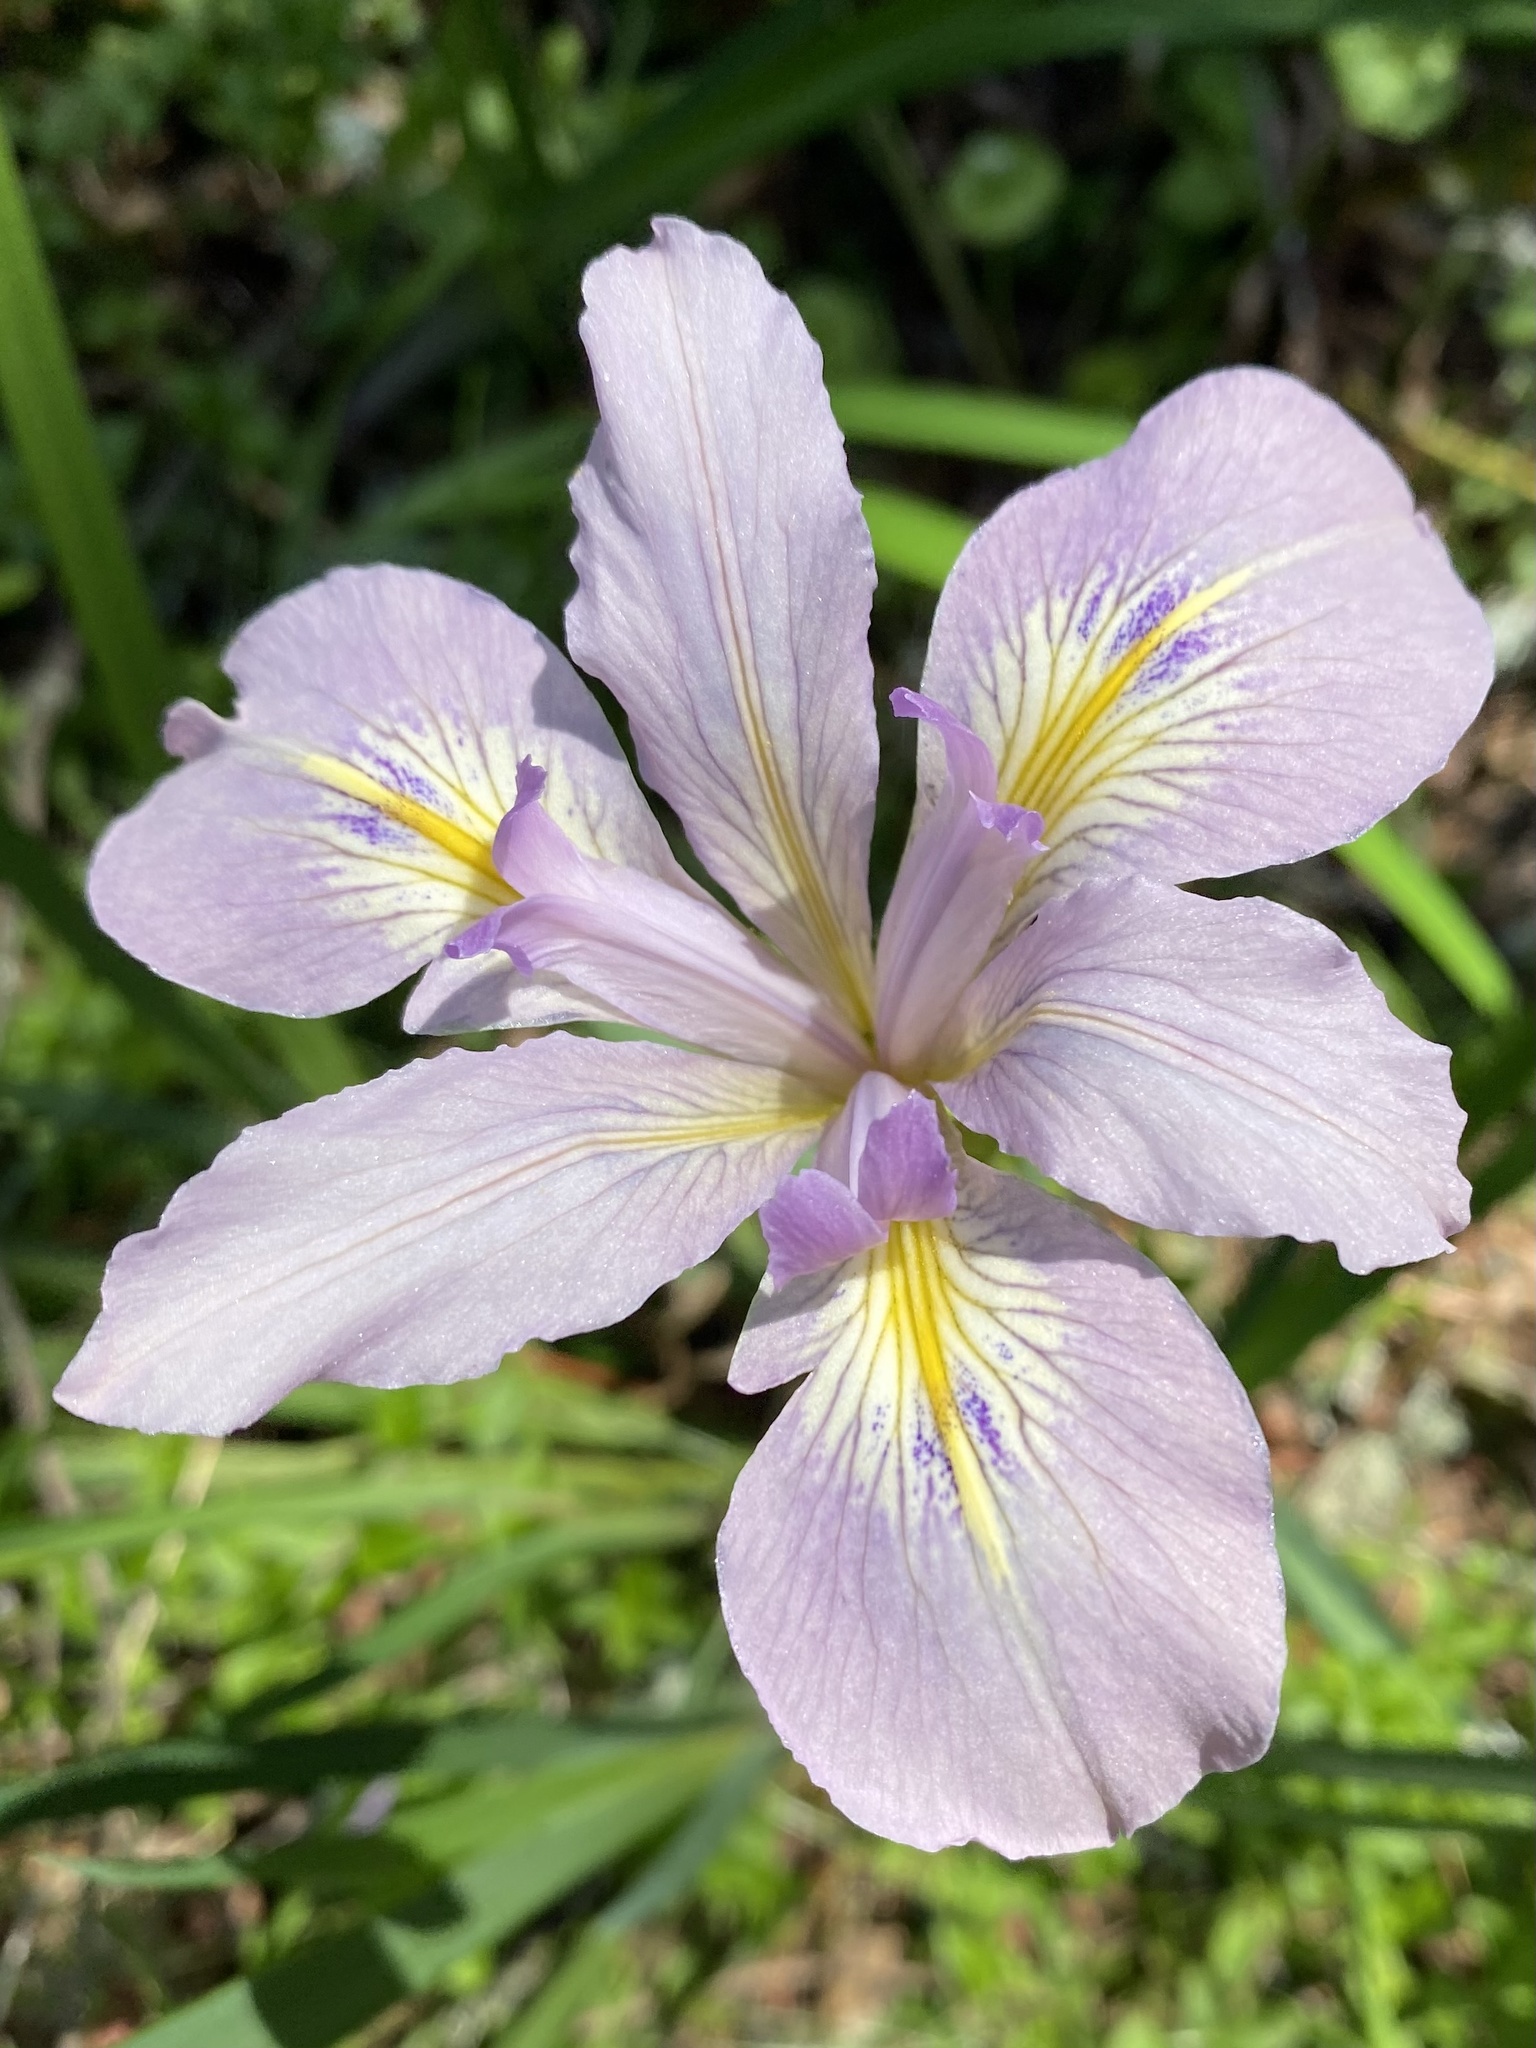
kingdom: Plantae
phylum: Tracheophyta
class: Liliopsida
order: Asparagales
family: Iridaceae
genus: Iris
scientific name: Iris douglasiana
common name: Marin iris
